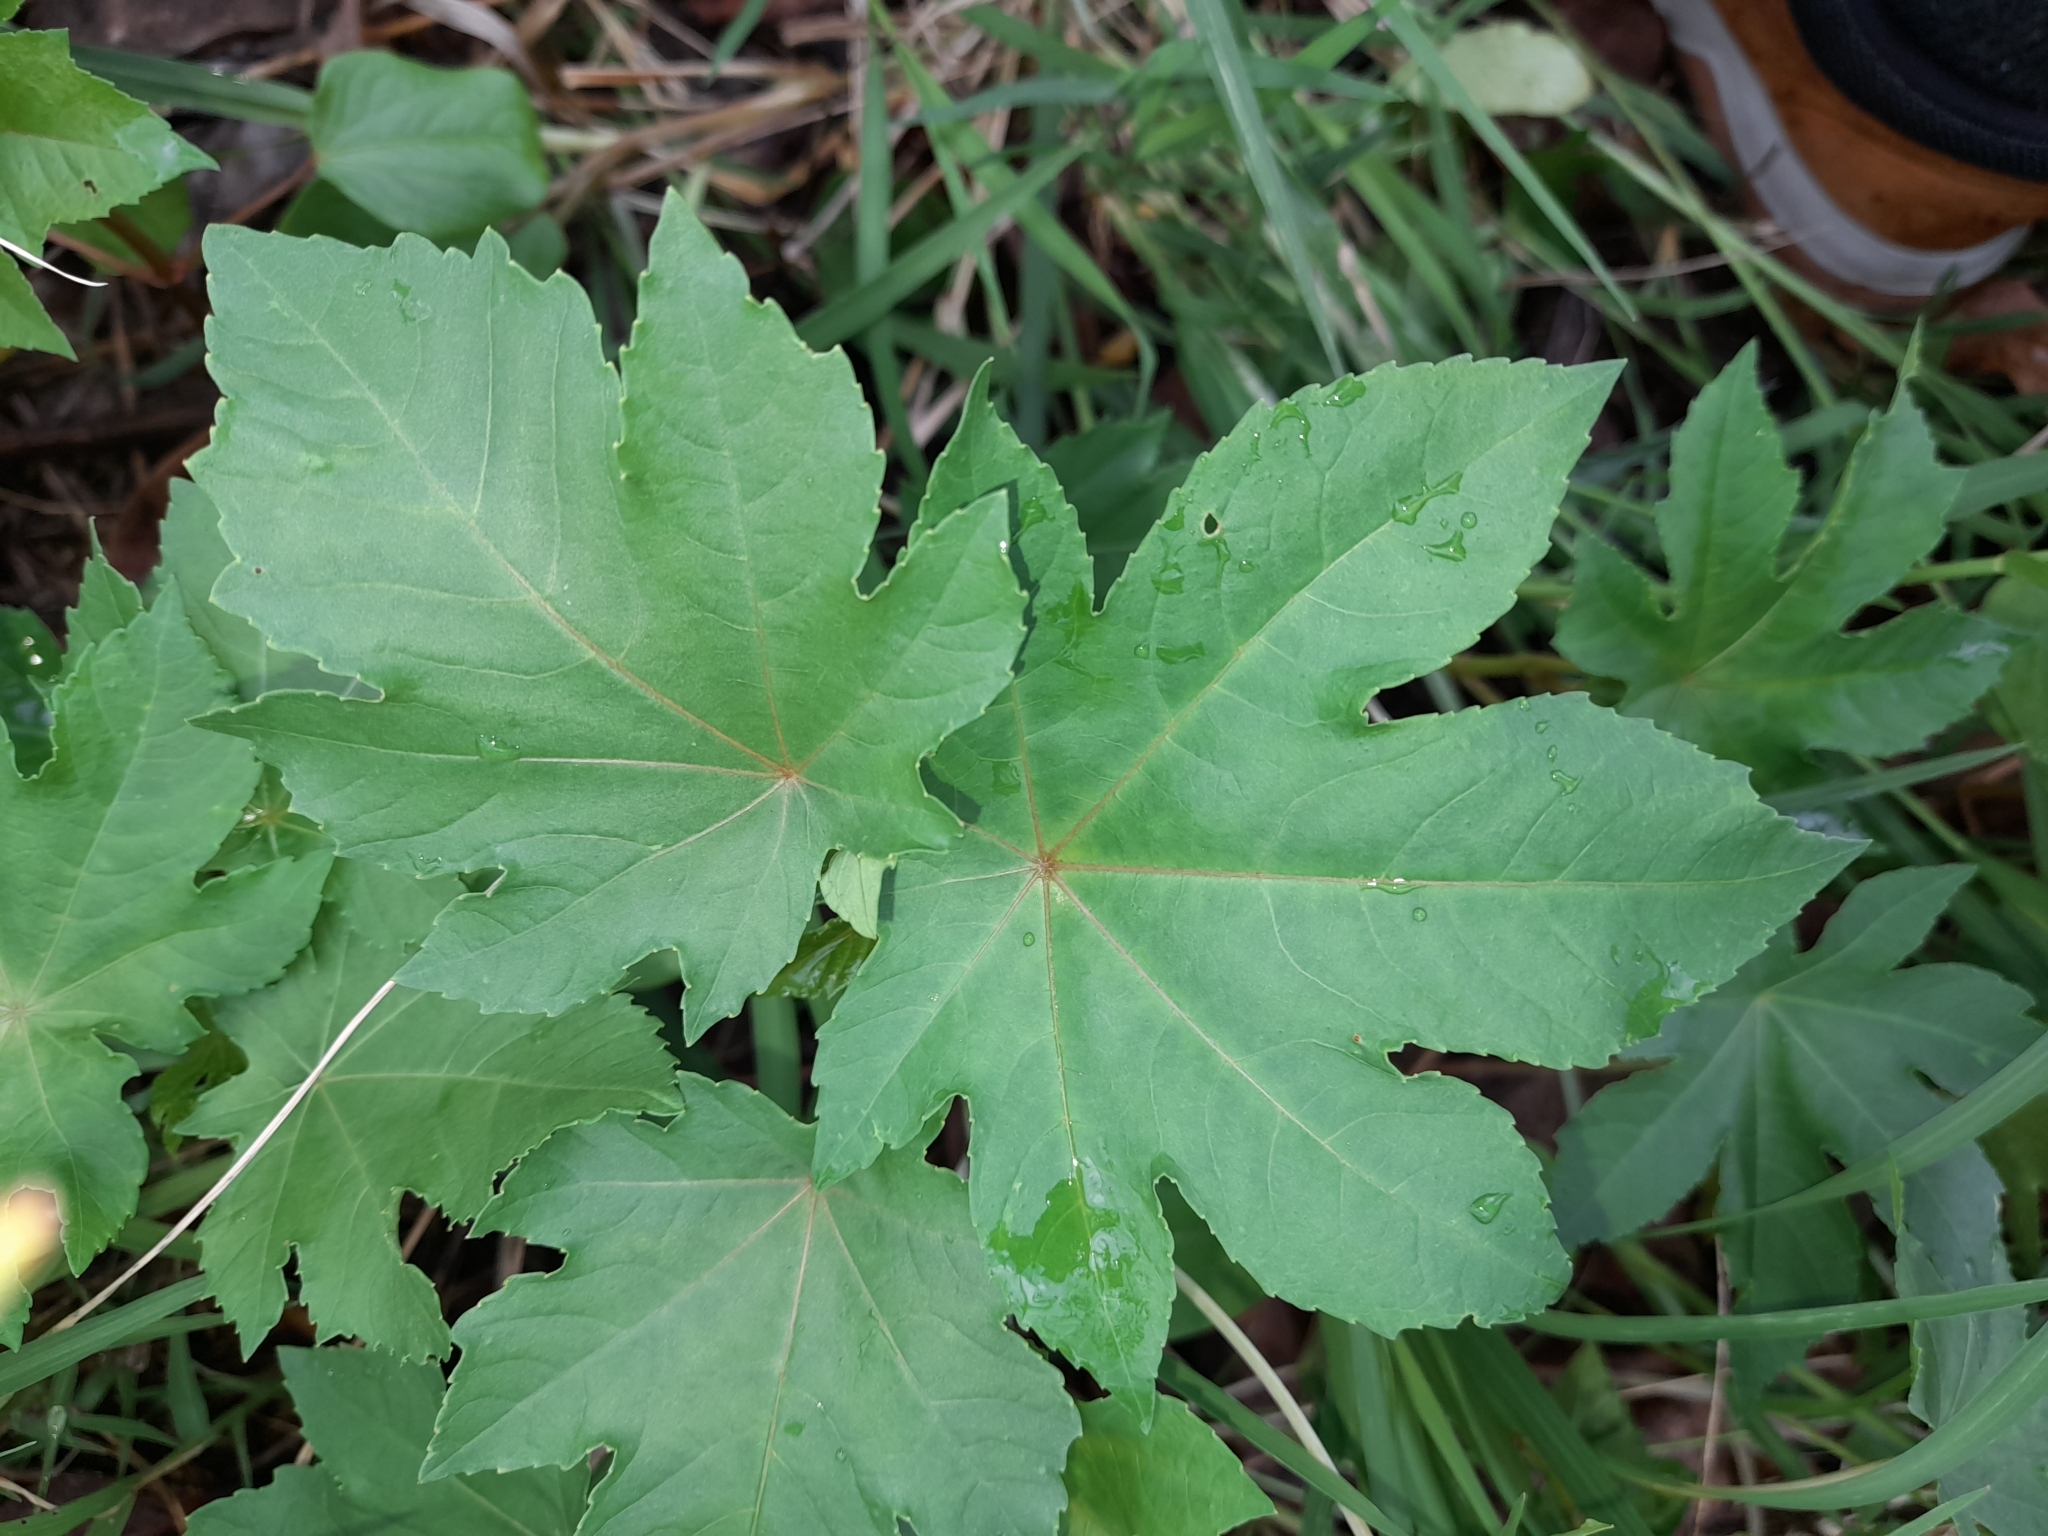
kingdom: Plantae
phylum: Tracheophyta
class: Magnoliopsida
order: Malpighiales
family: Euphorbiaceae
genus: Ricinus
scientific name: Ricinus communis
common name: Castor-oil-plant
